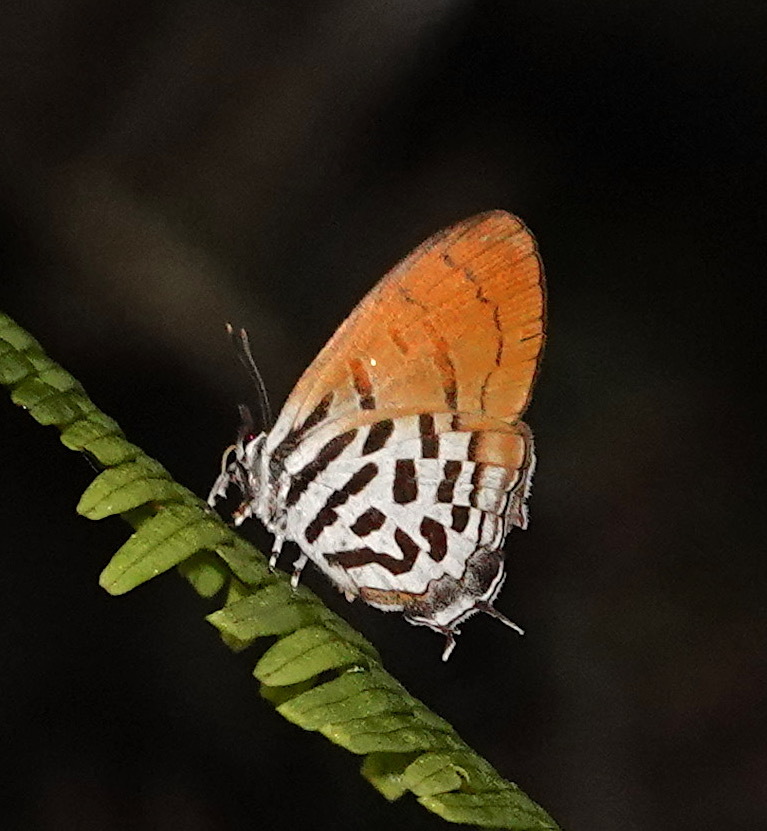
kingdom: Animalia
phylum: Arthropoda
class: Insecta
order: Lepidoptera
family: Lycaenidae
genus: Drupadia
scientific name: Drupadia ravindra
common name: Common posy
